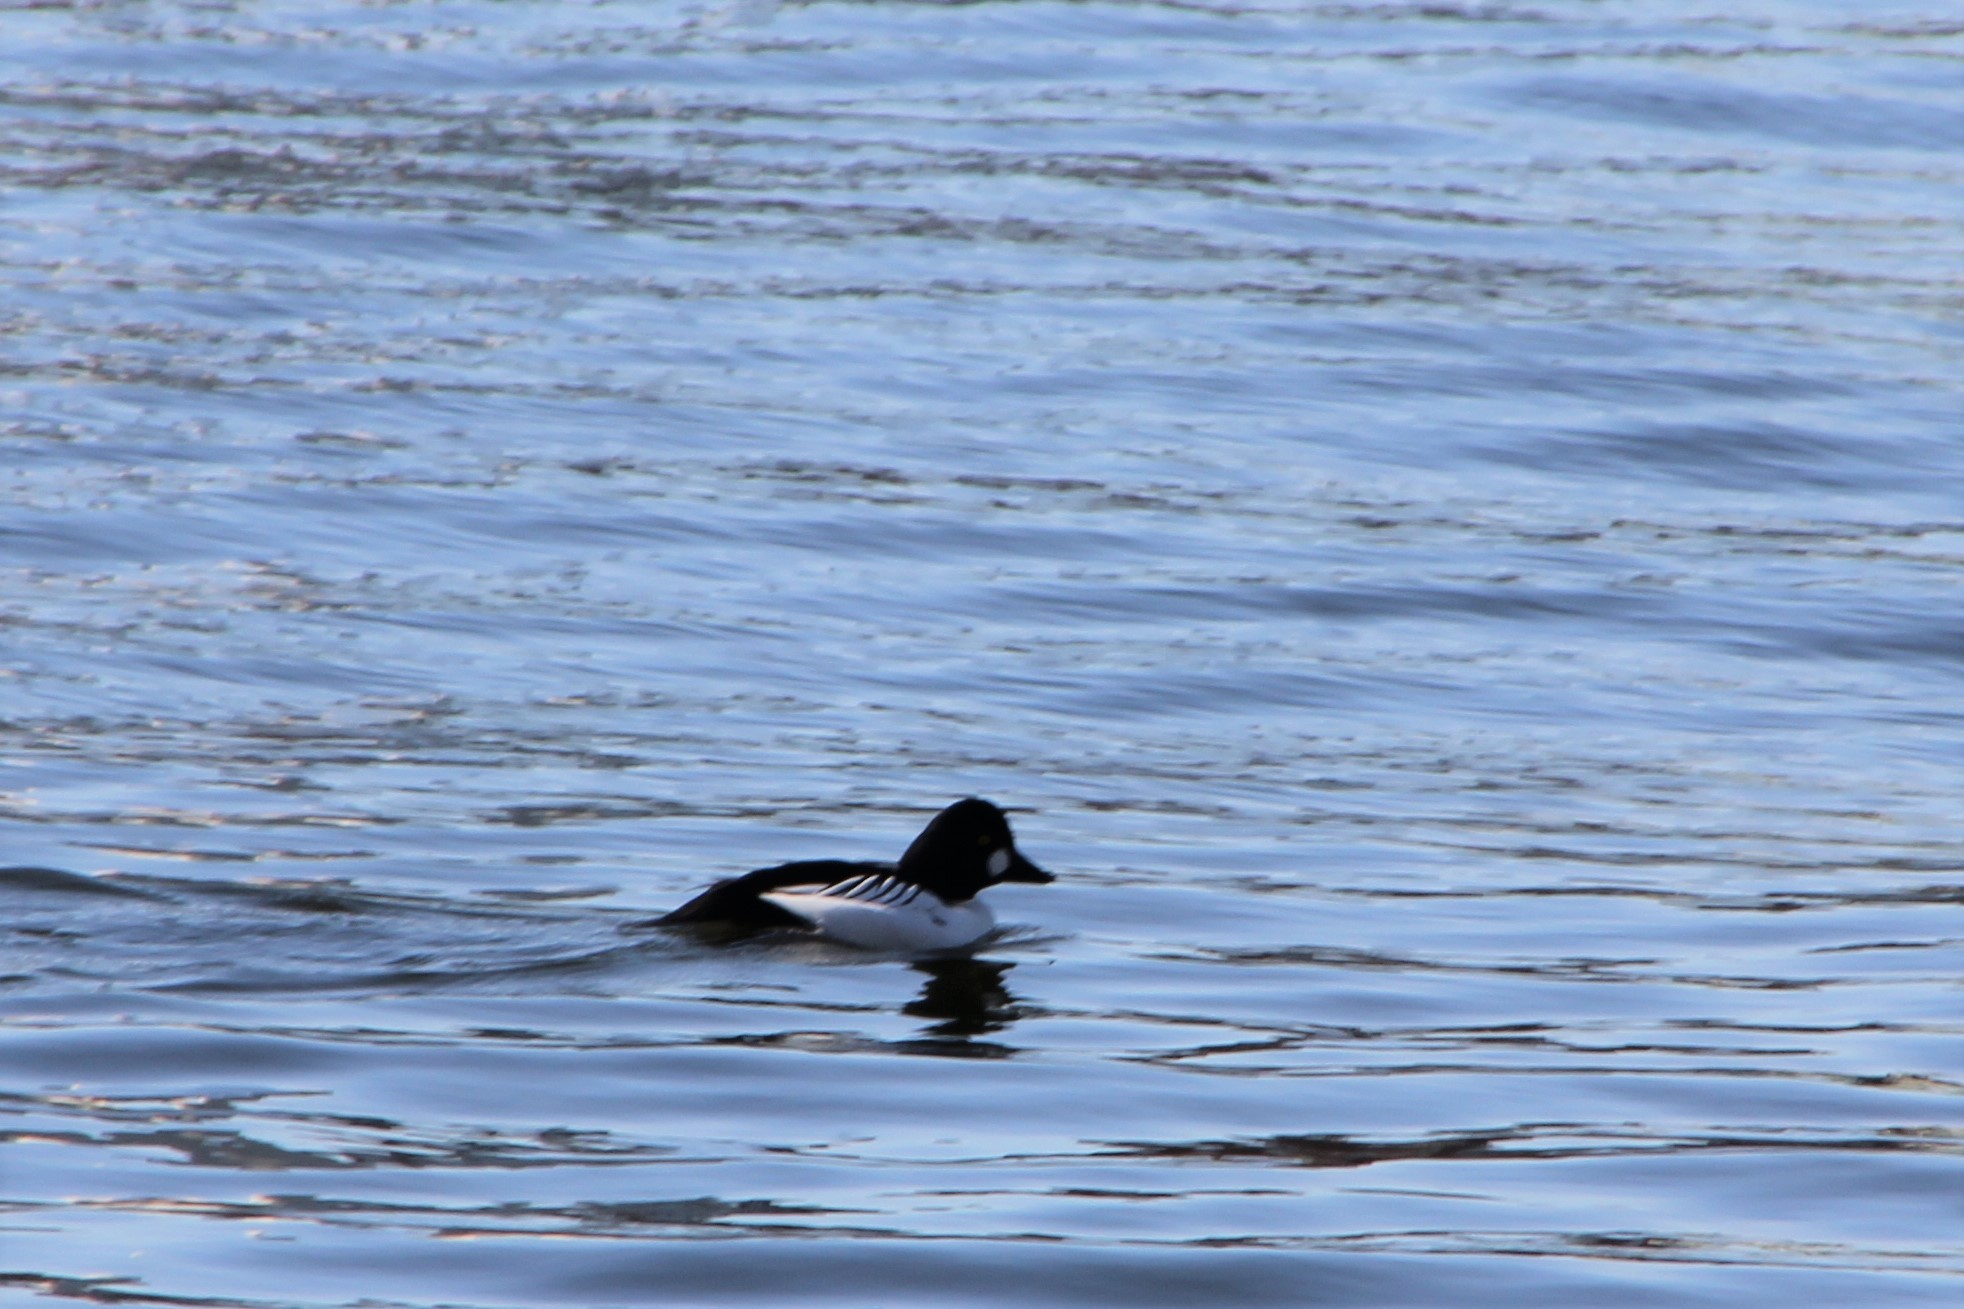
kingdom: Animalia
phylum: Chordata
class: Aves
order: Anseriformes
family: Anatidae
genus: Bucephala
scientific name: Bucephala clangula
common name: Common goldeneye
